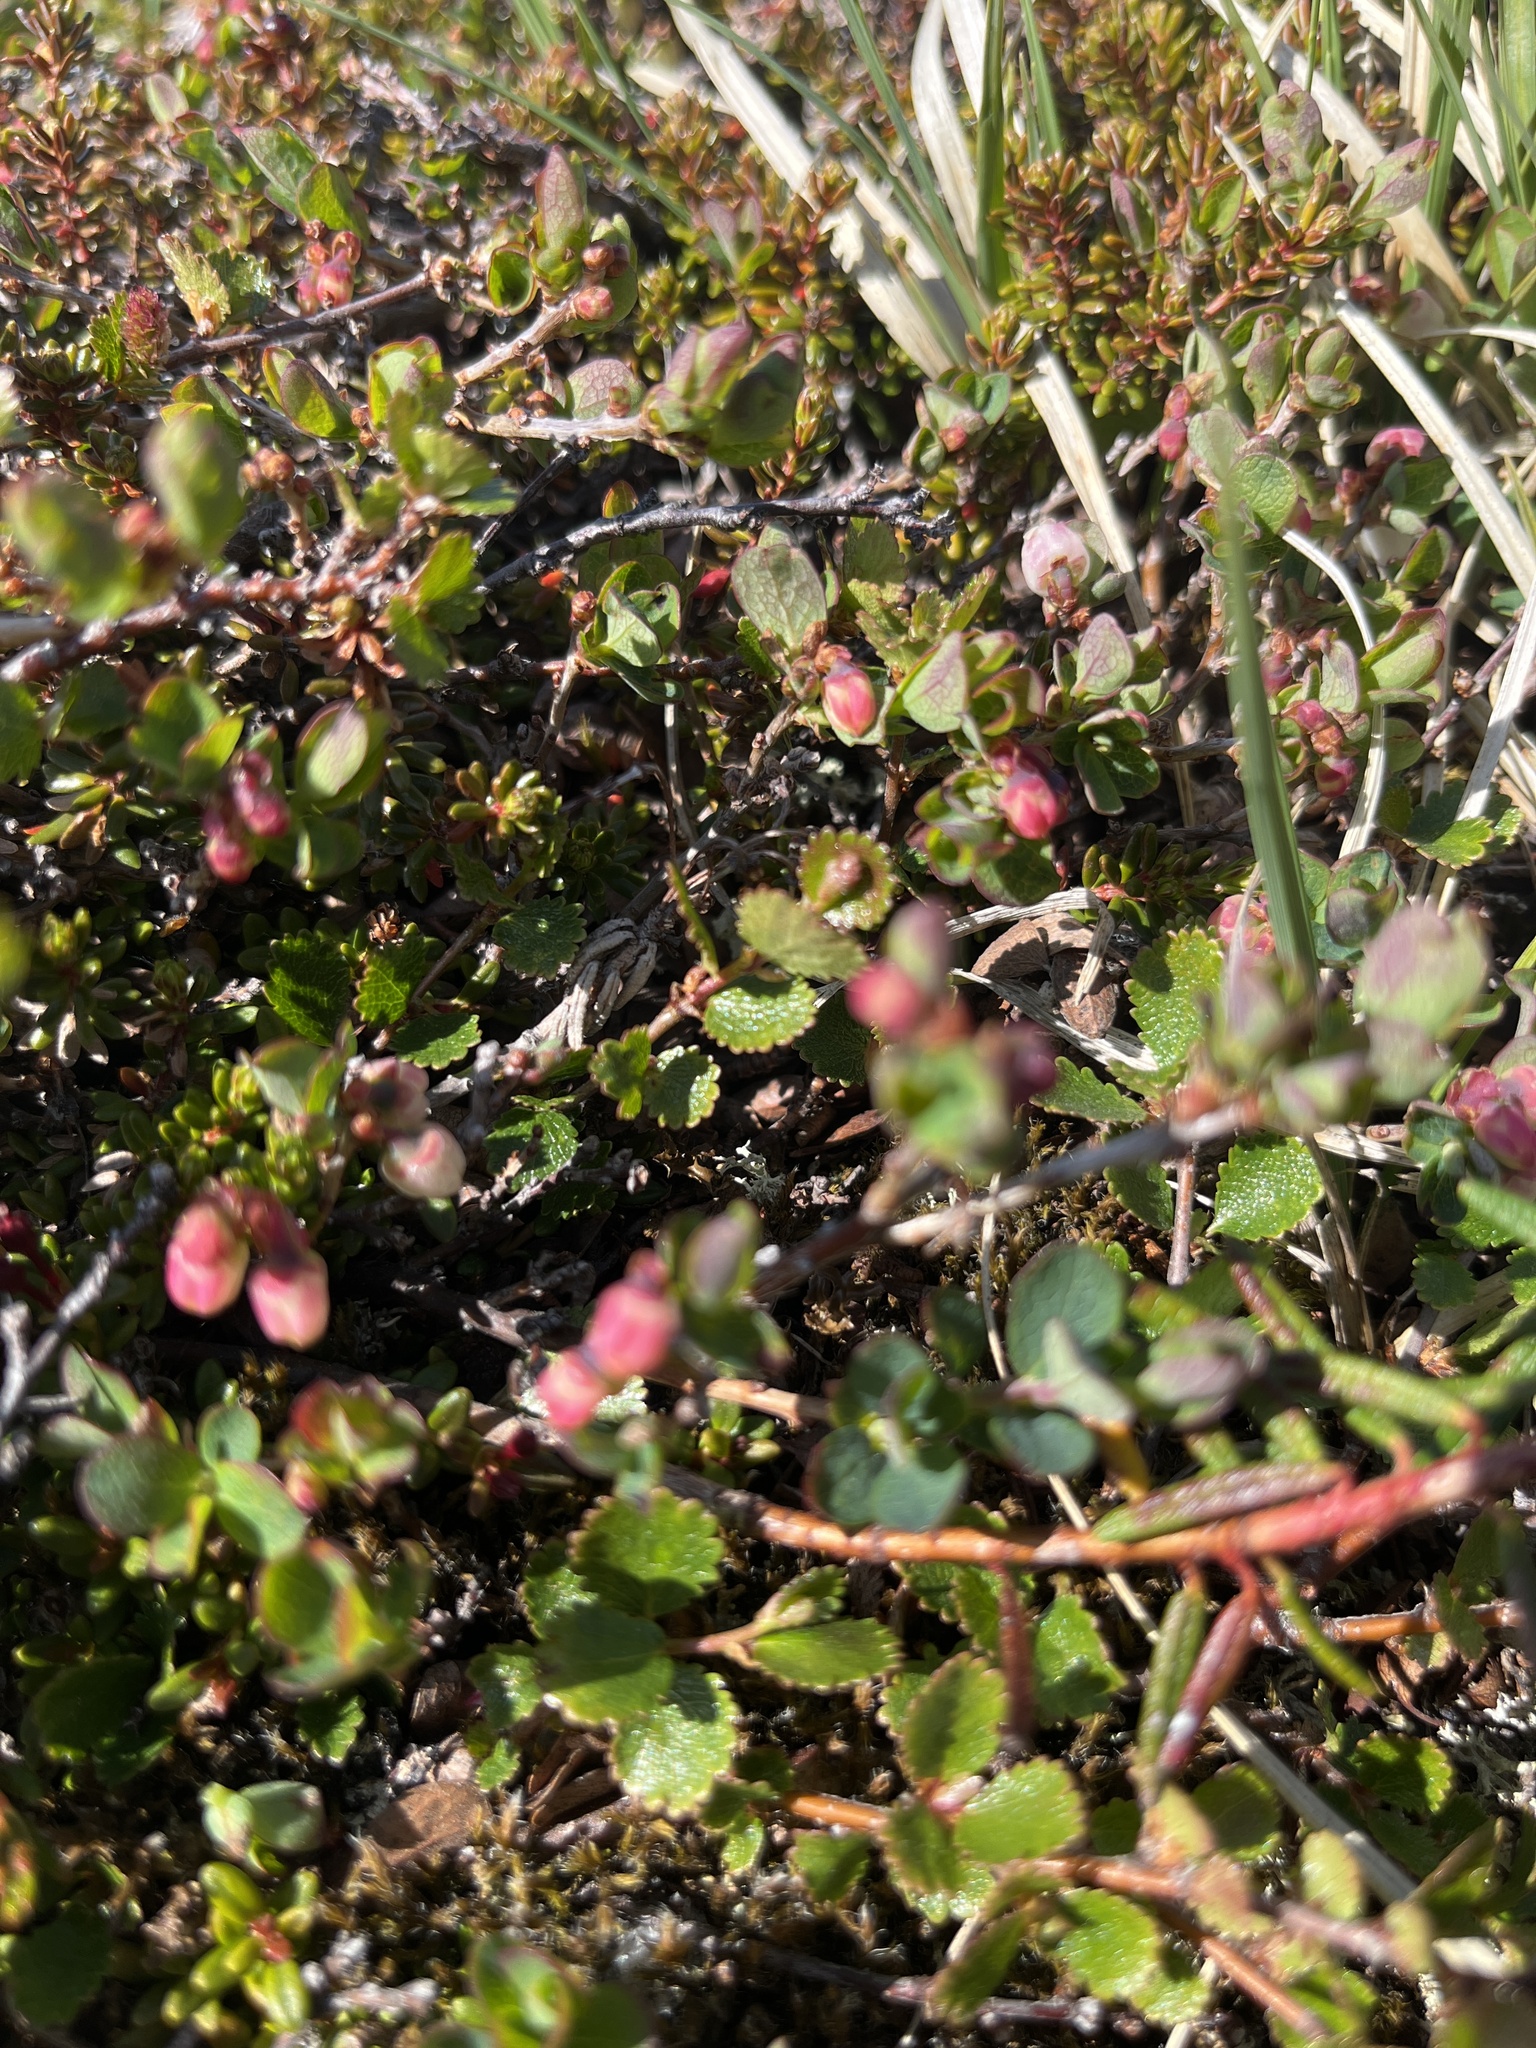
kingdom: Plantae
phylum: Tracheophyta
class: Magnoliopsida
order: Ericales
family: Ericaceae
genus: Vaccinium
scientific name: Vaccinium uliginosum
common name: Bog bilberry
